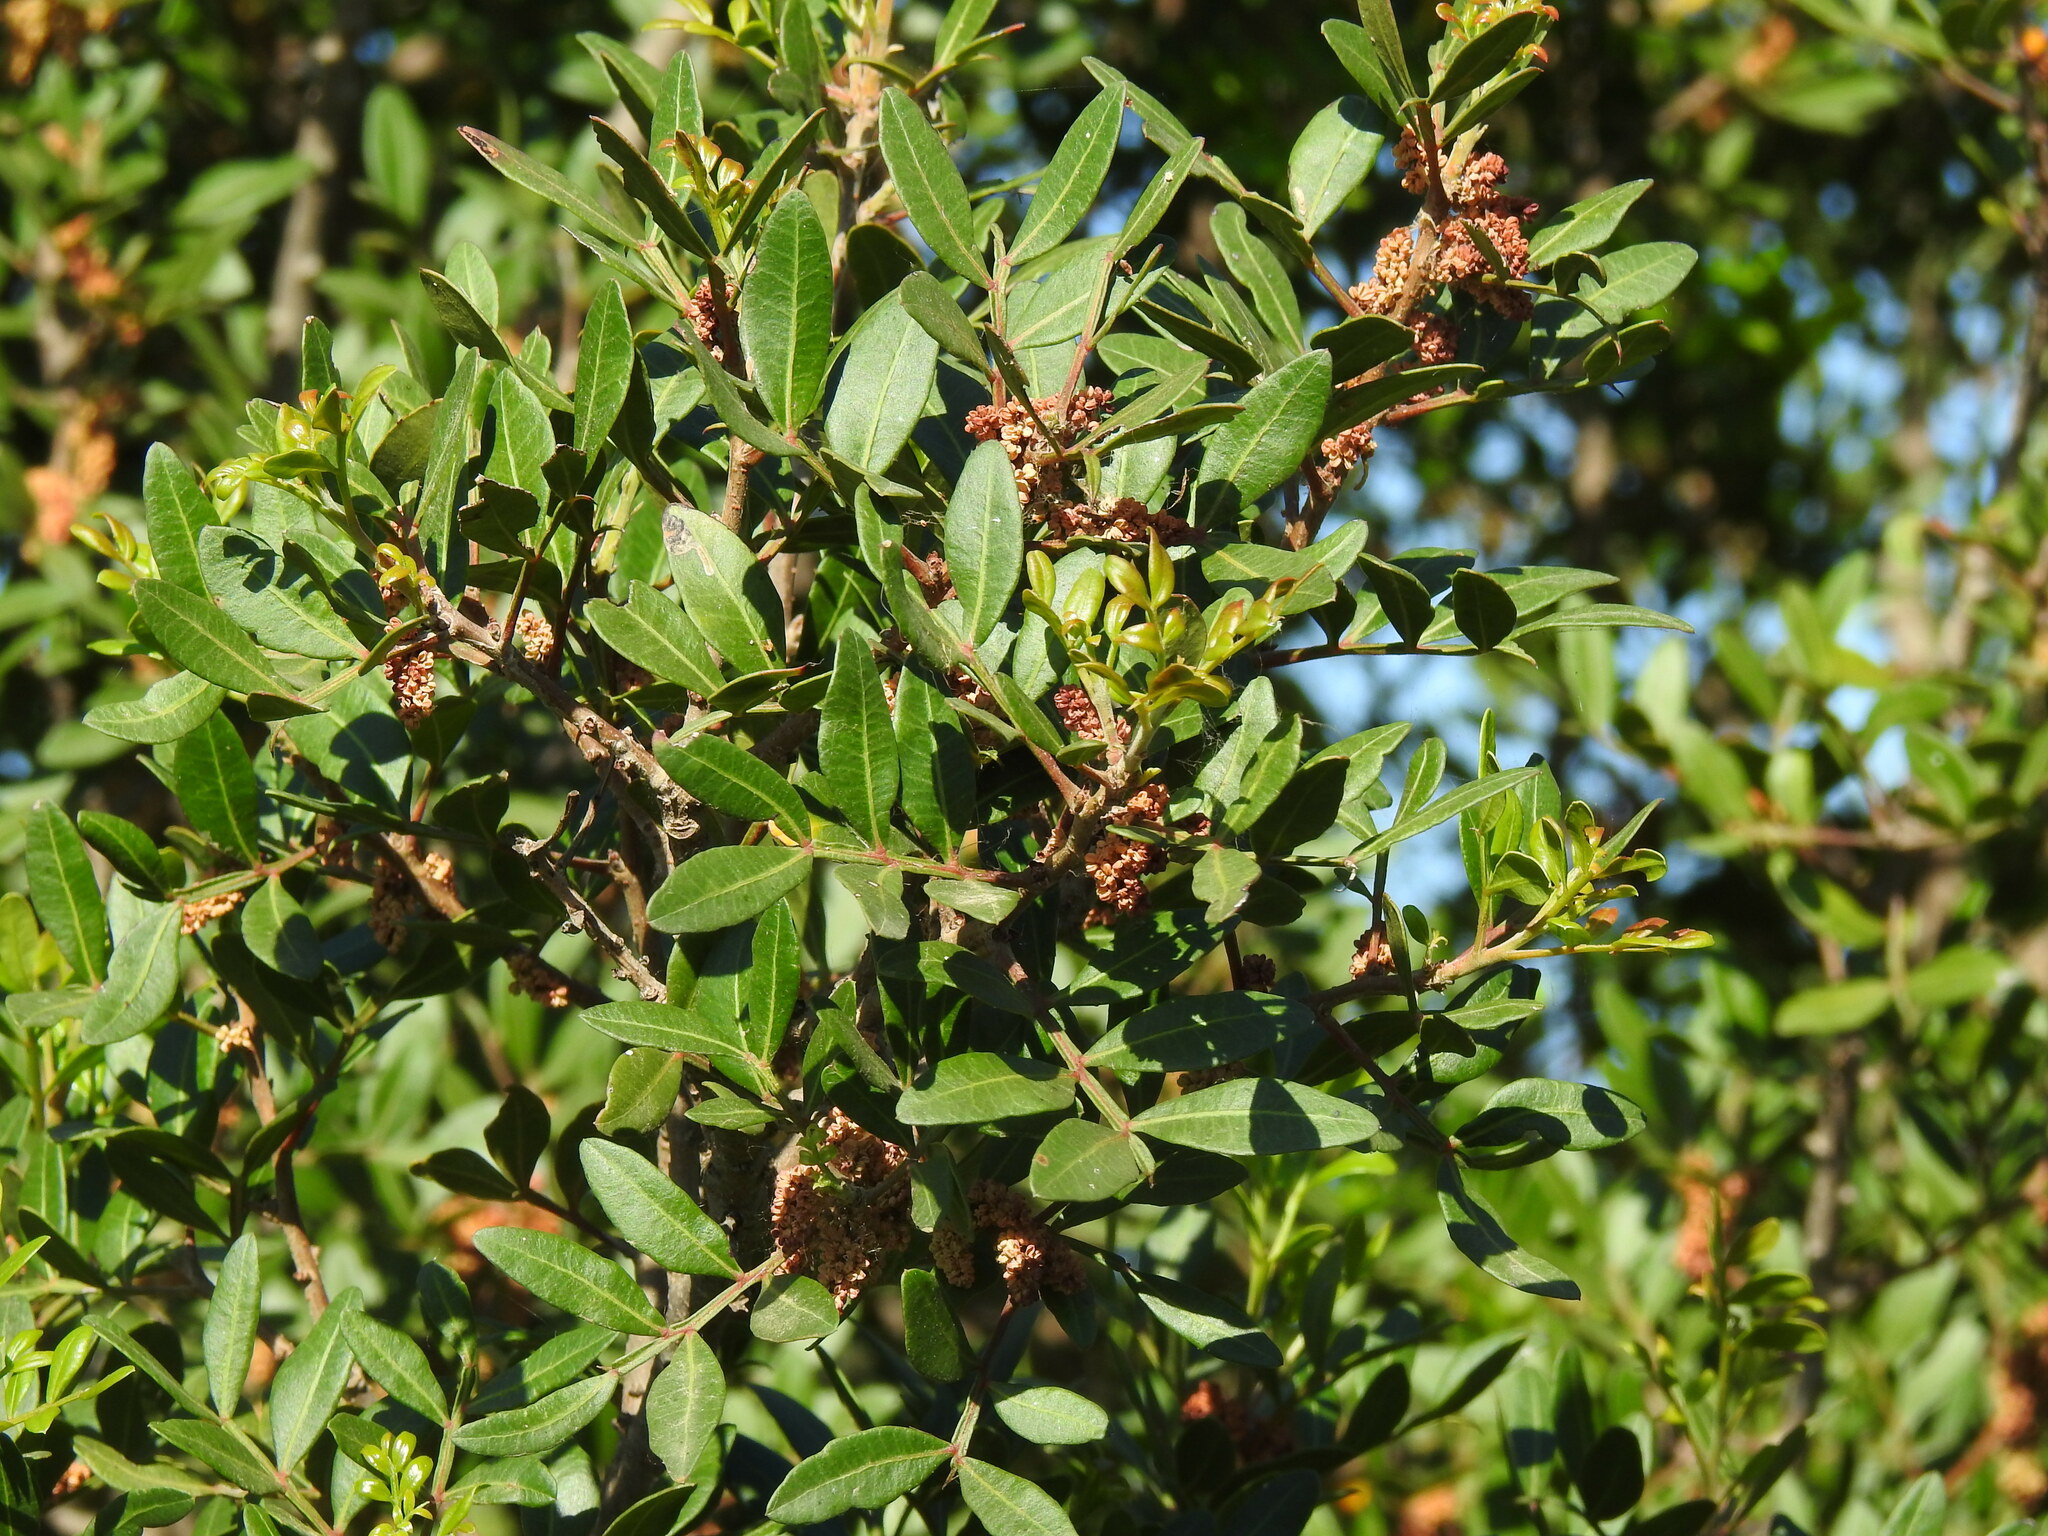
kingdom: Plantae
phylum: Tracheophyta
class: Magnoliopsida
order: Sapindales
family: Anacardiaceae
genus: Pistacia
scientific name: Pistacia lentiscus
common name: Lentisk
